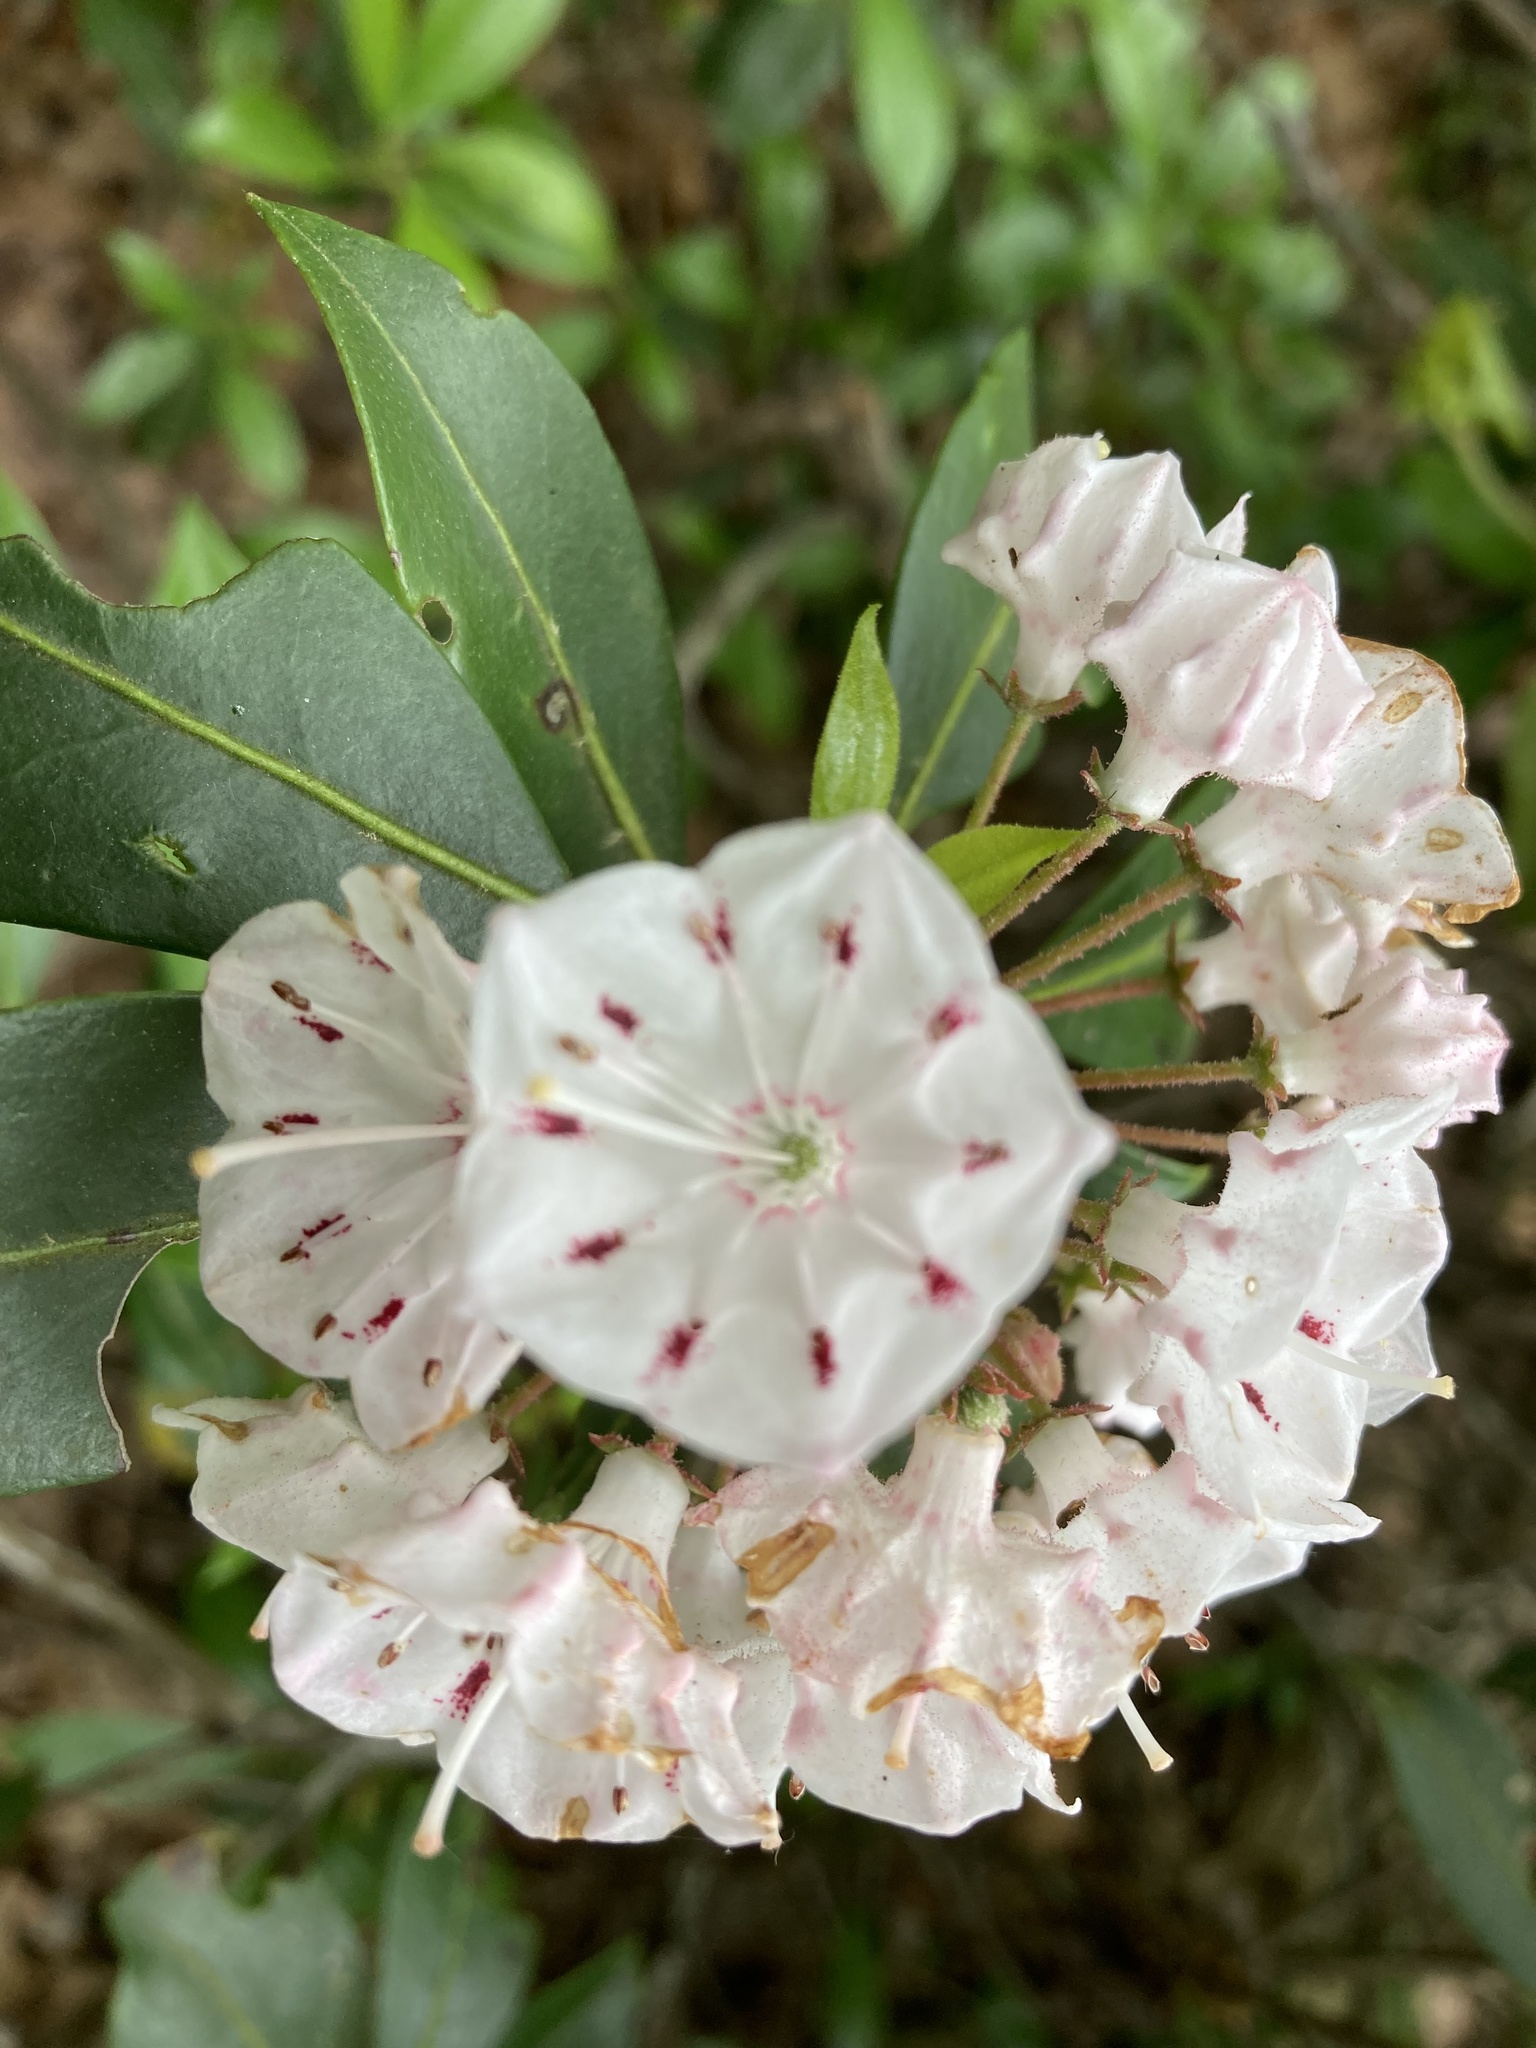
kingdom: Plantae
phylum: Tracheophyta
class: Magnoliopsida
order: Ericales
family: Ericaceae
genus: Kalmia
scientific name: Kalmia latifolia
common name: Mountain-laurel
